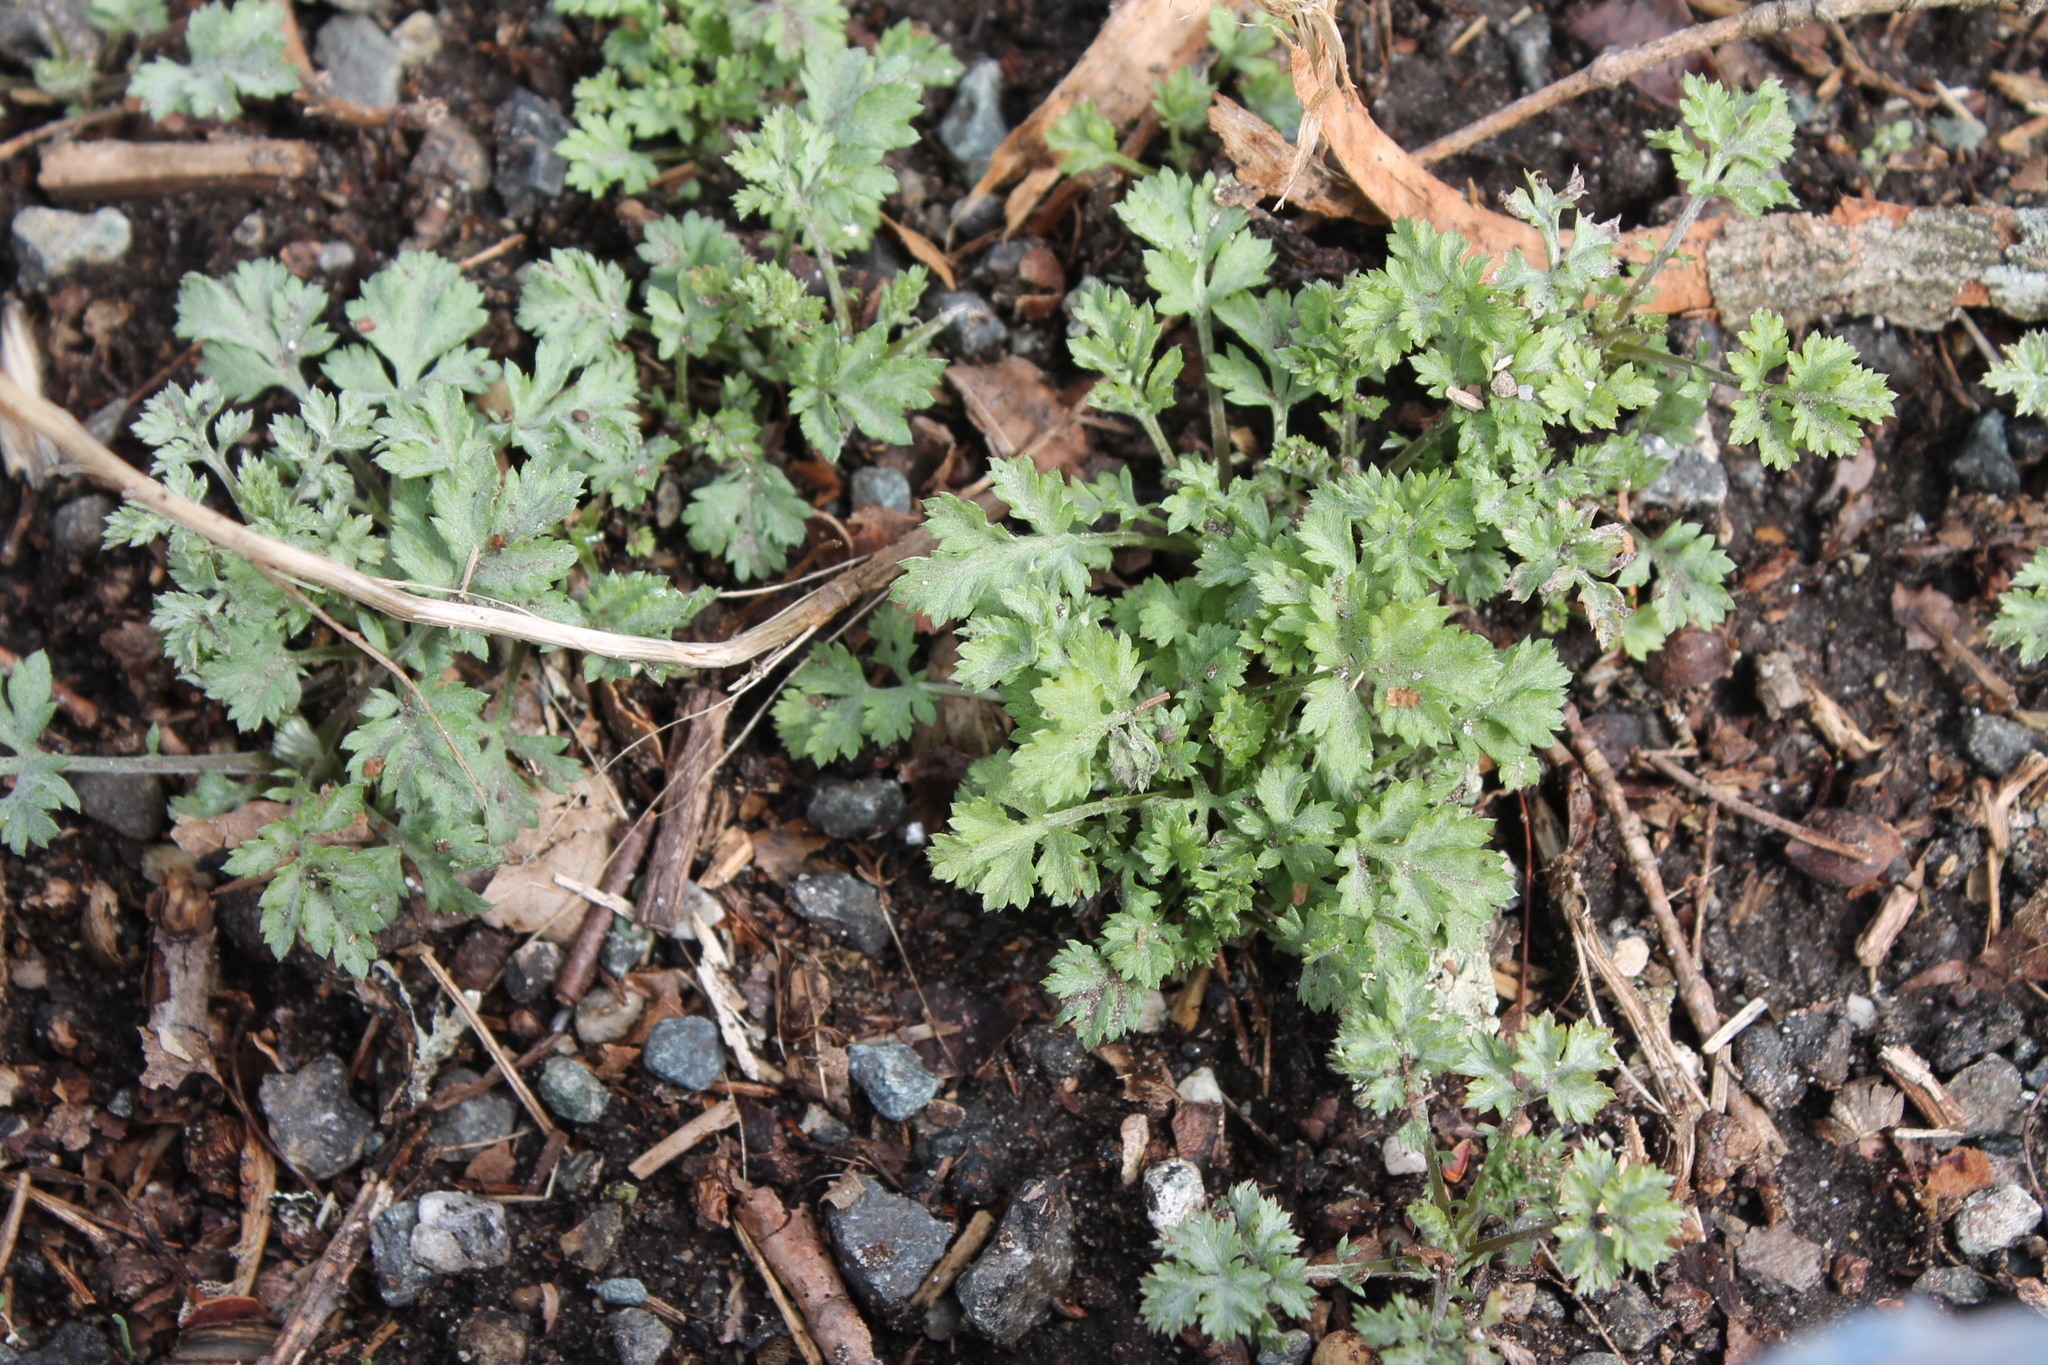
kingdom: Plantae
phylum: Tracheophyta
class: Magnoliopsida
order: Asterales
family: Asteraceae
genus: Artemisia
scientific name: Artemisia vulgaris
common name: Mugwort
